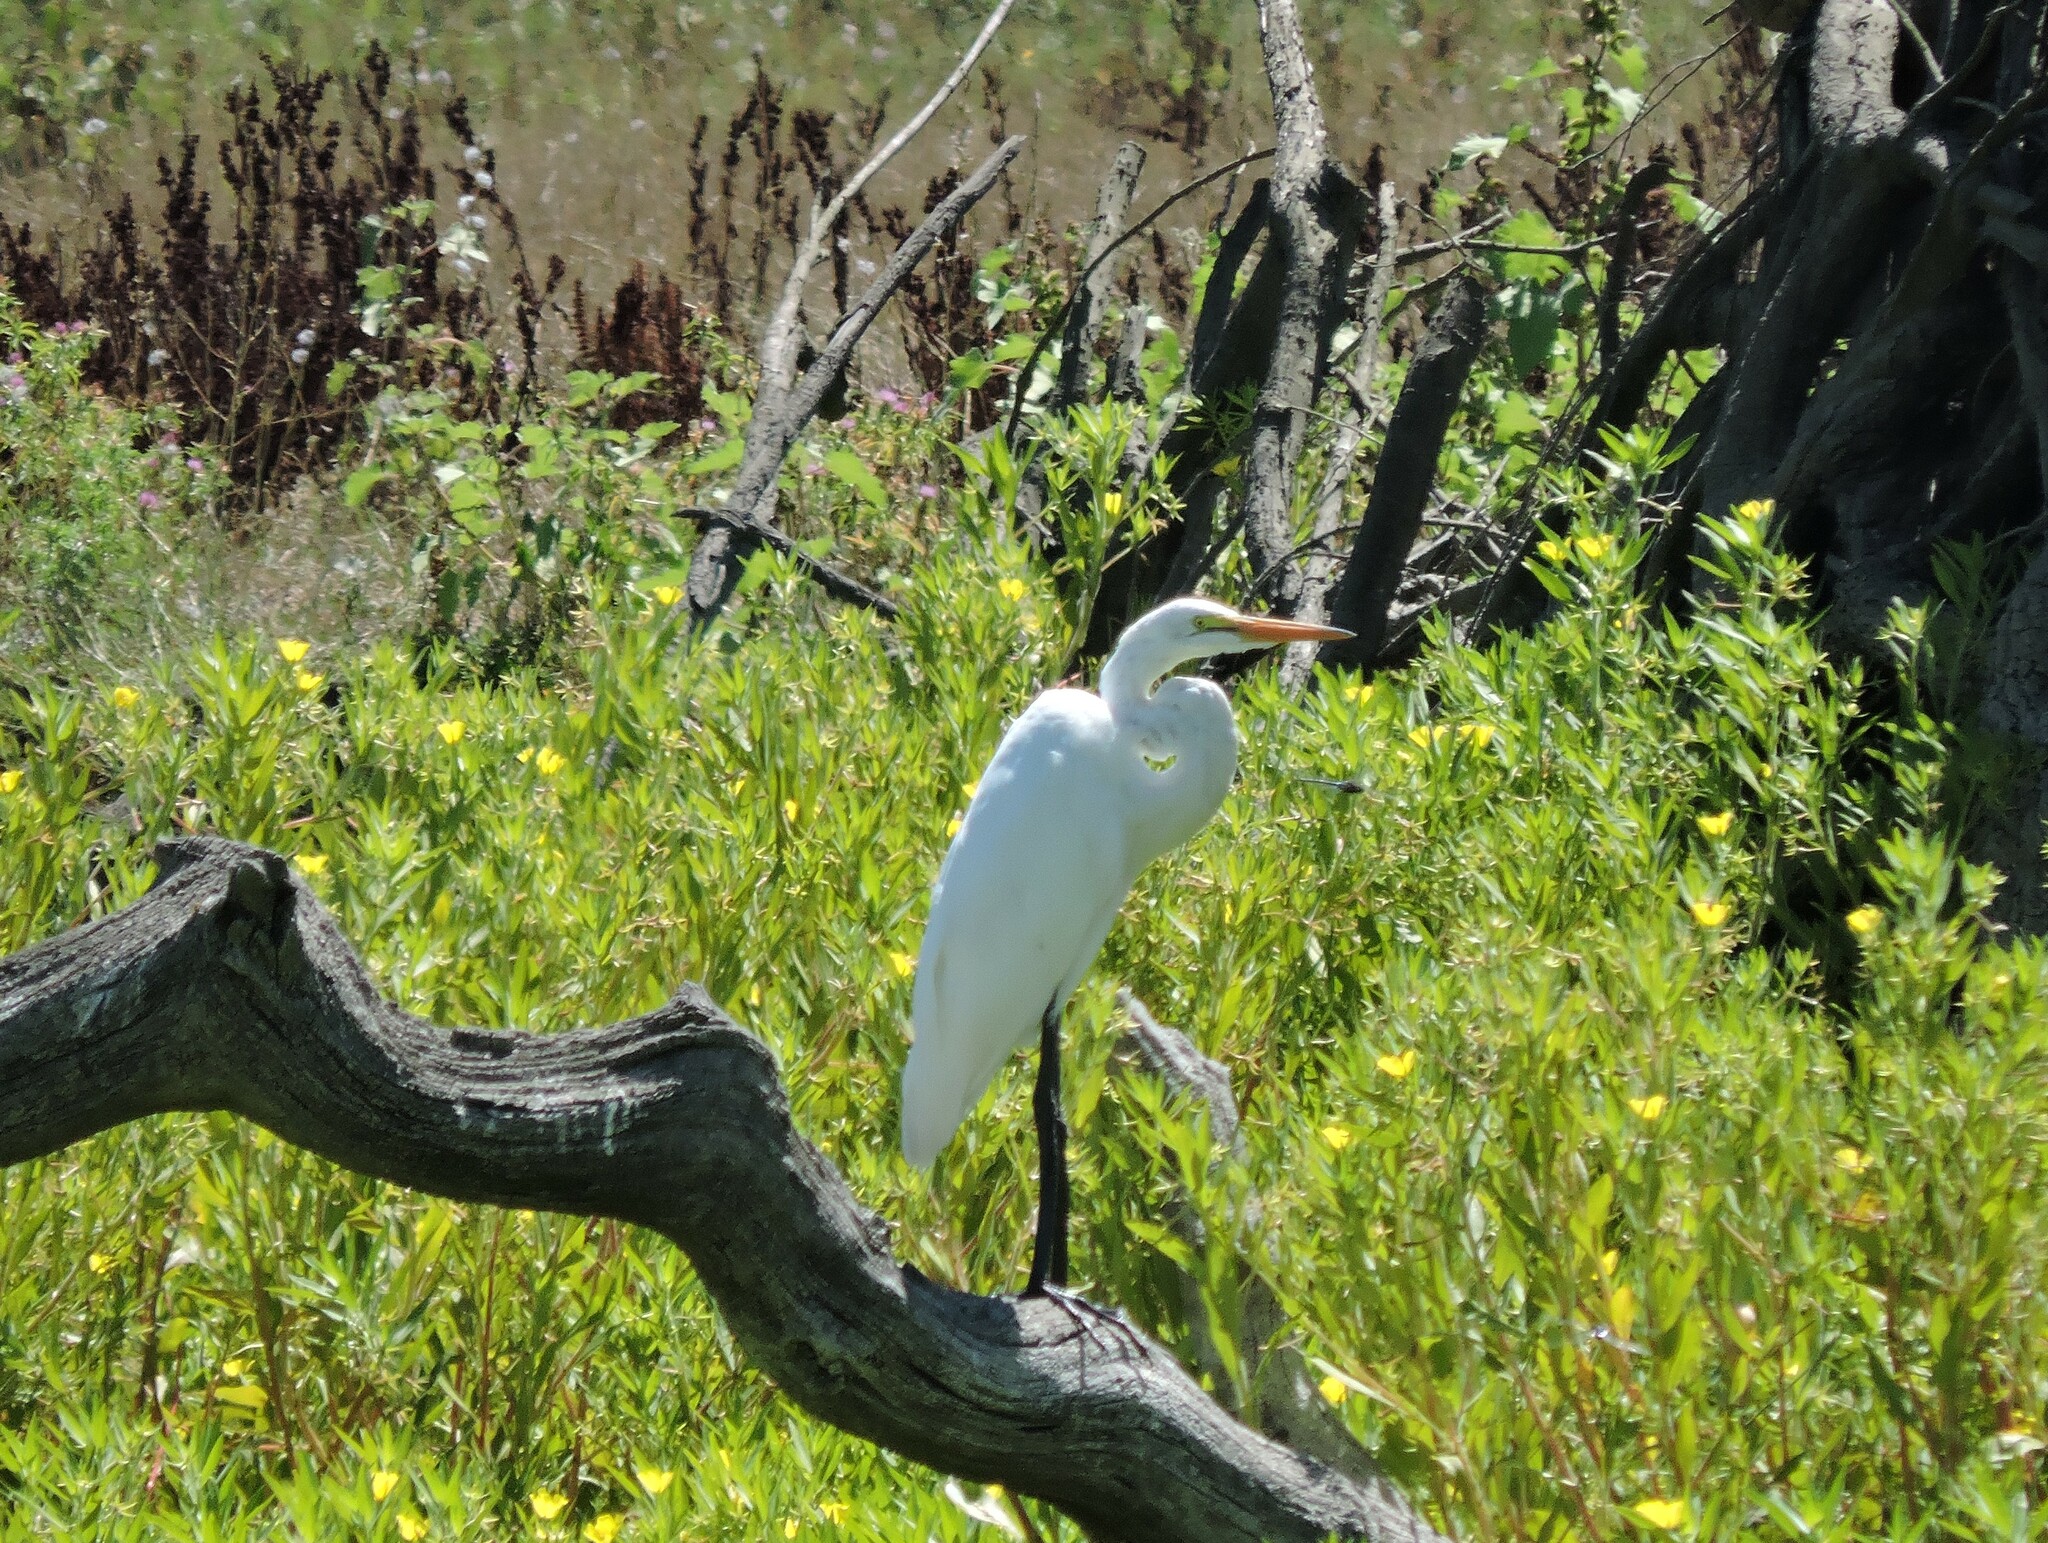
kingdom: Animalia
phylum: Chordata
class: Aves
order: Pelecaniformes
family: Ardeidae
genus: Ardea
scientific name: Ardea alba
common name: Great egret
